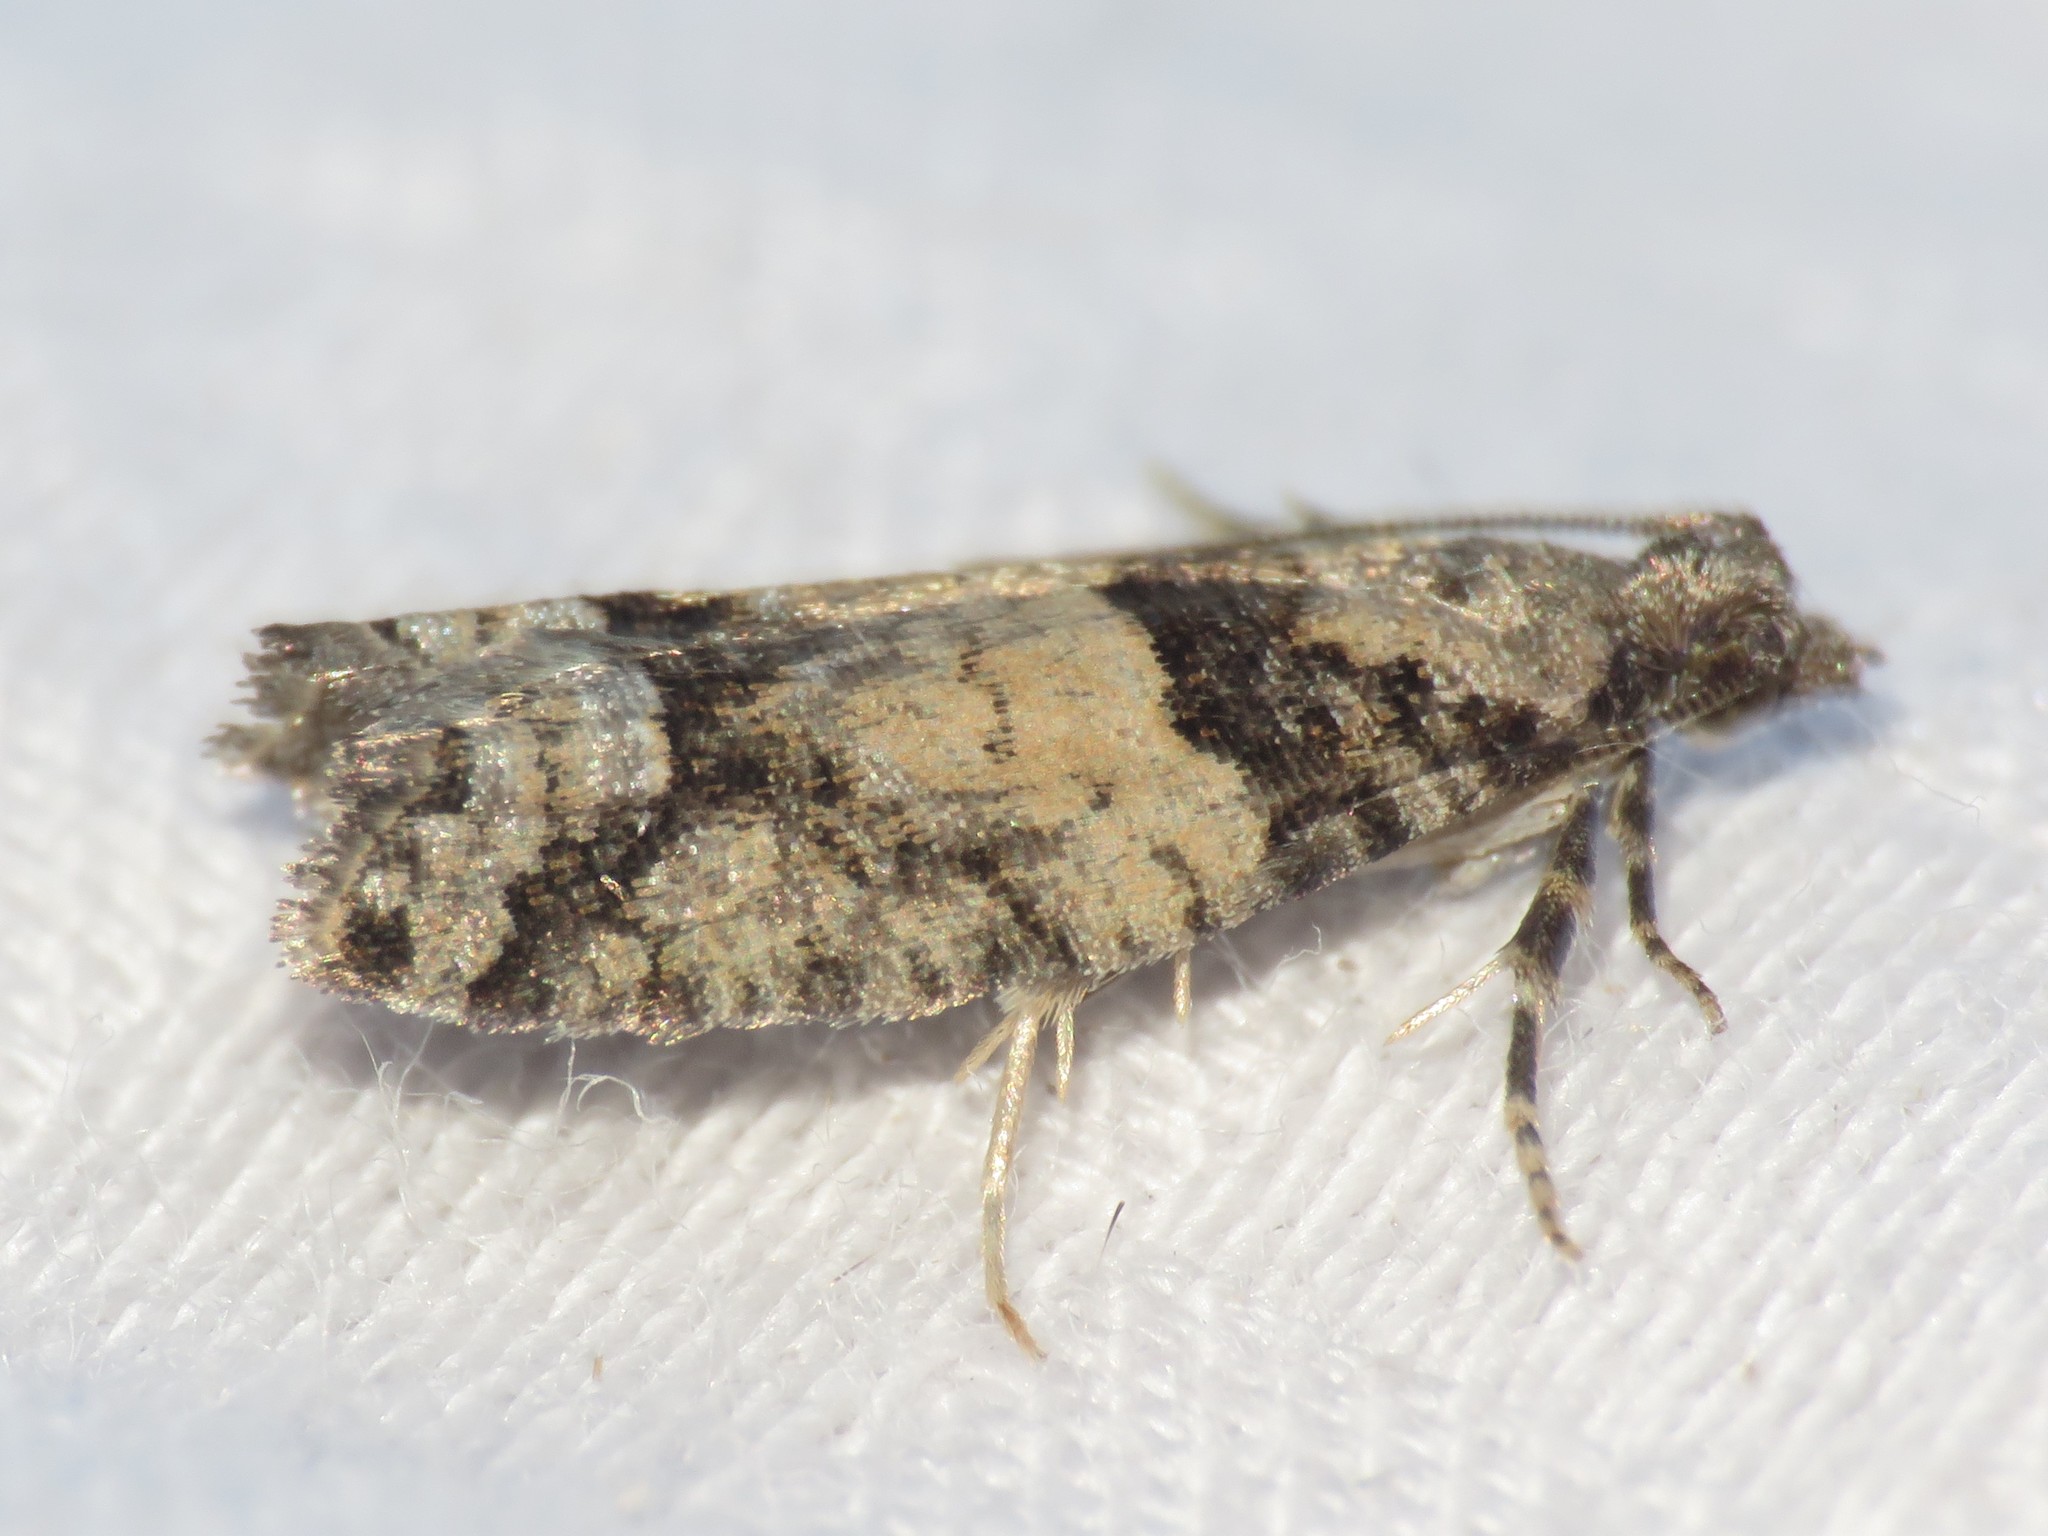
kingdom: Animalia
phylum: Arthropoda
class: Insecta
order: Lepidoptera
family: Tortricidae
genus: Epinotia
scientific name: Epinotia radicana
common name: Red-striped needleworm moth
